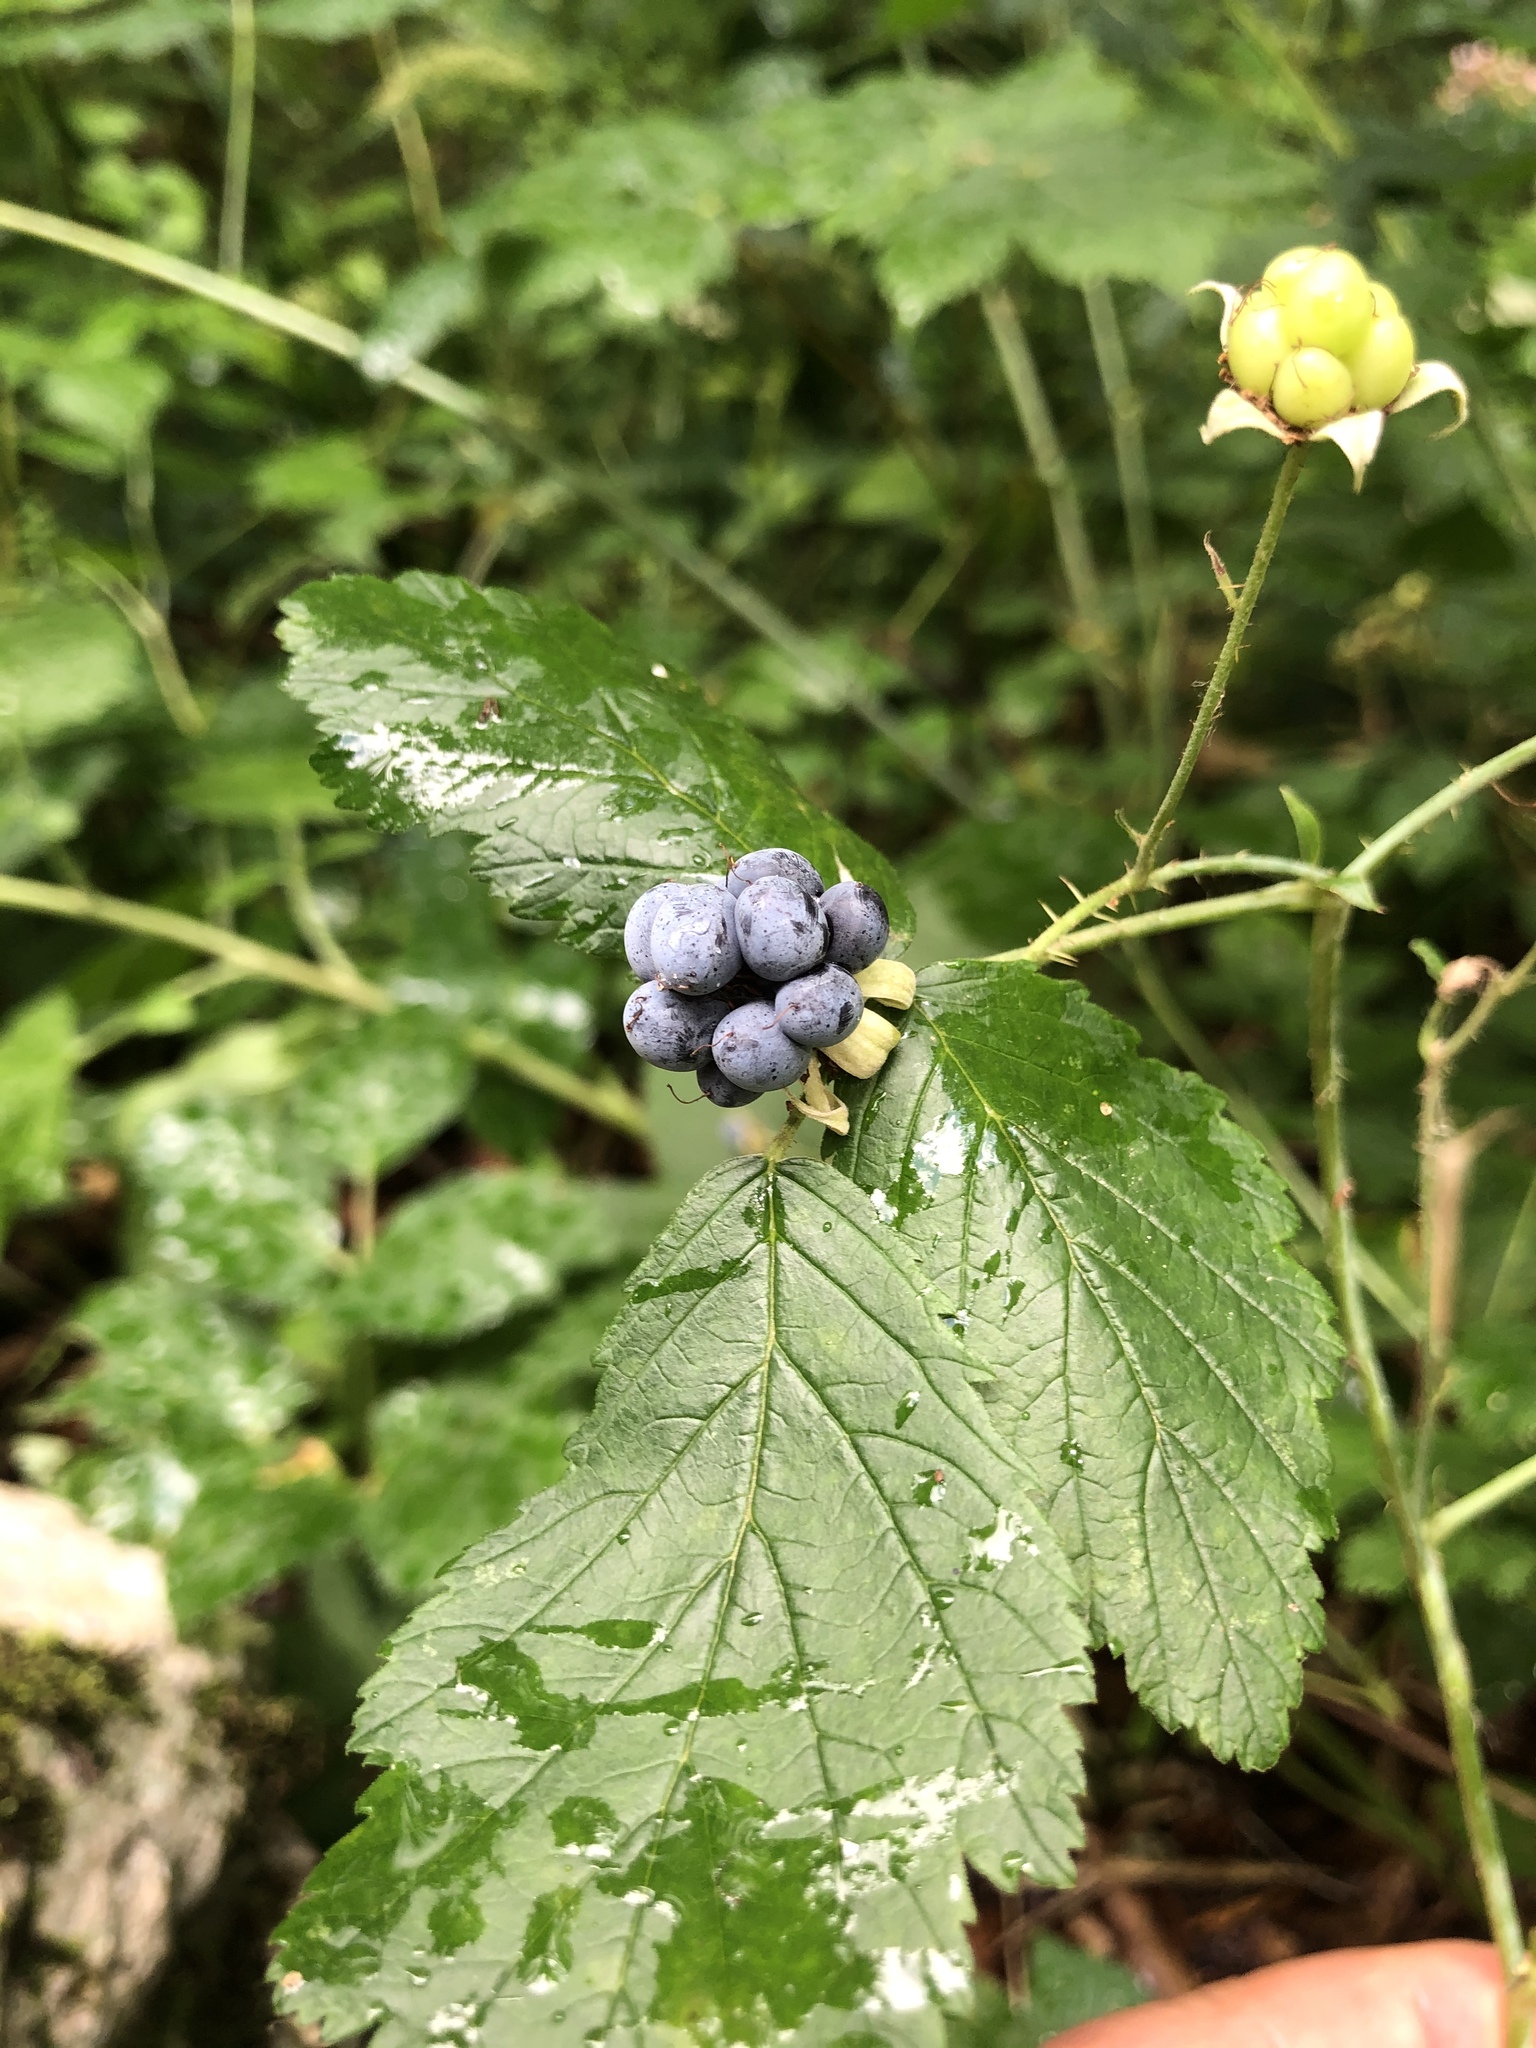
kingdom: Plantae
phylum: Tracheophyta
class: Magnoliopsida
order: Rosales
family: Rosaceae
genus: Rubus
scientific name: Rubus caesius
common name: Dewberry
